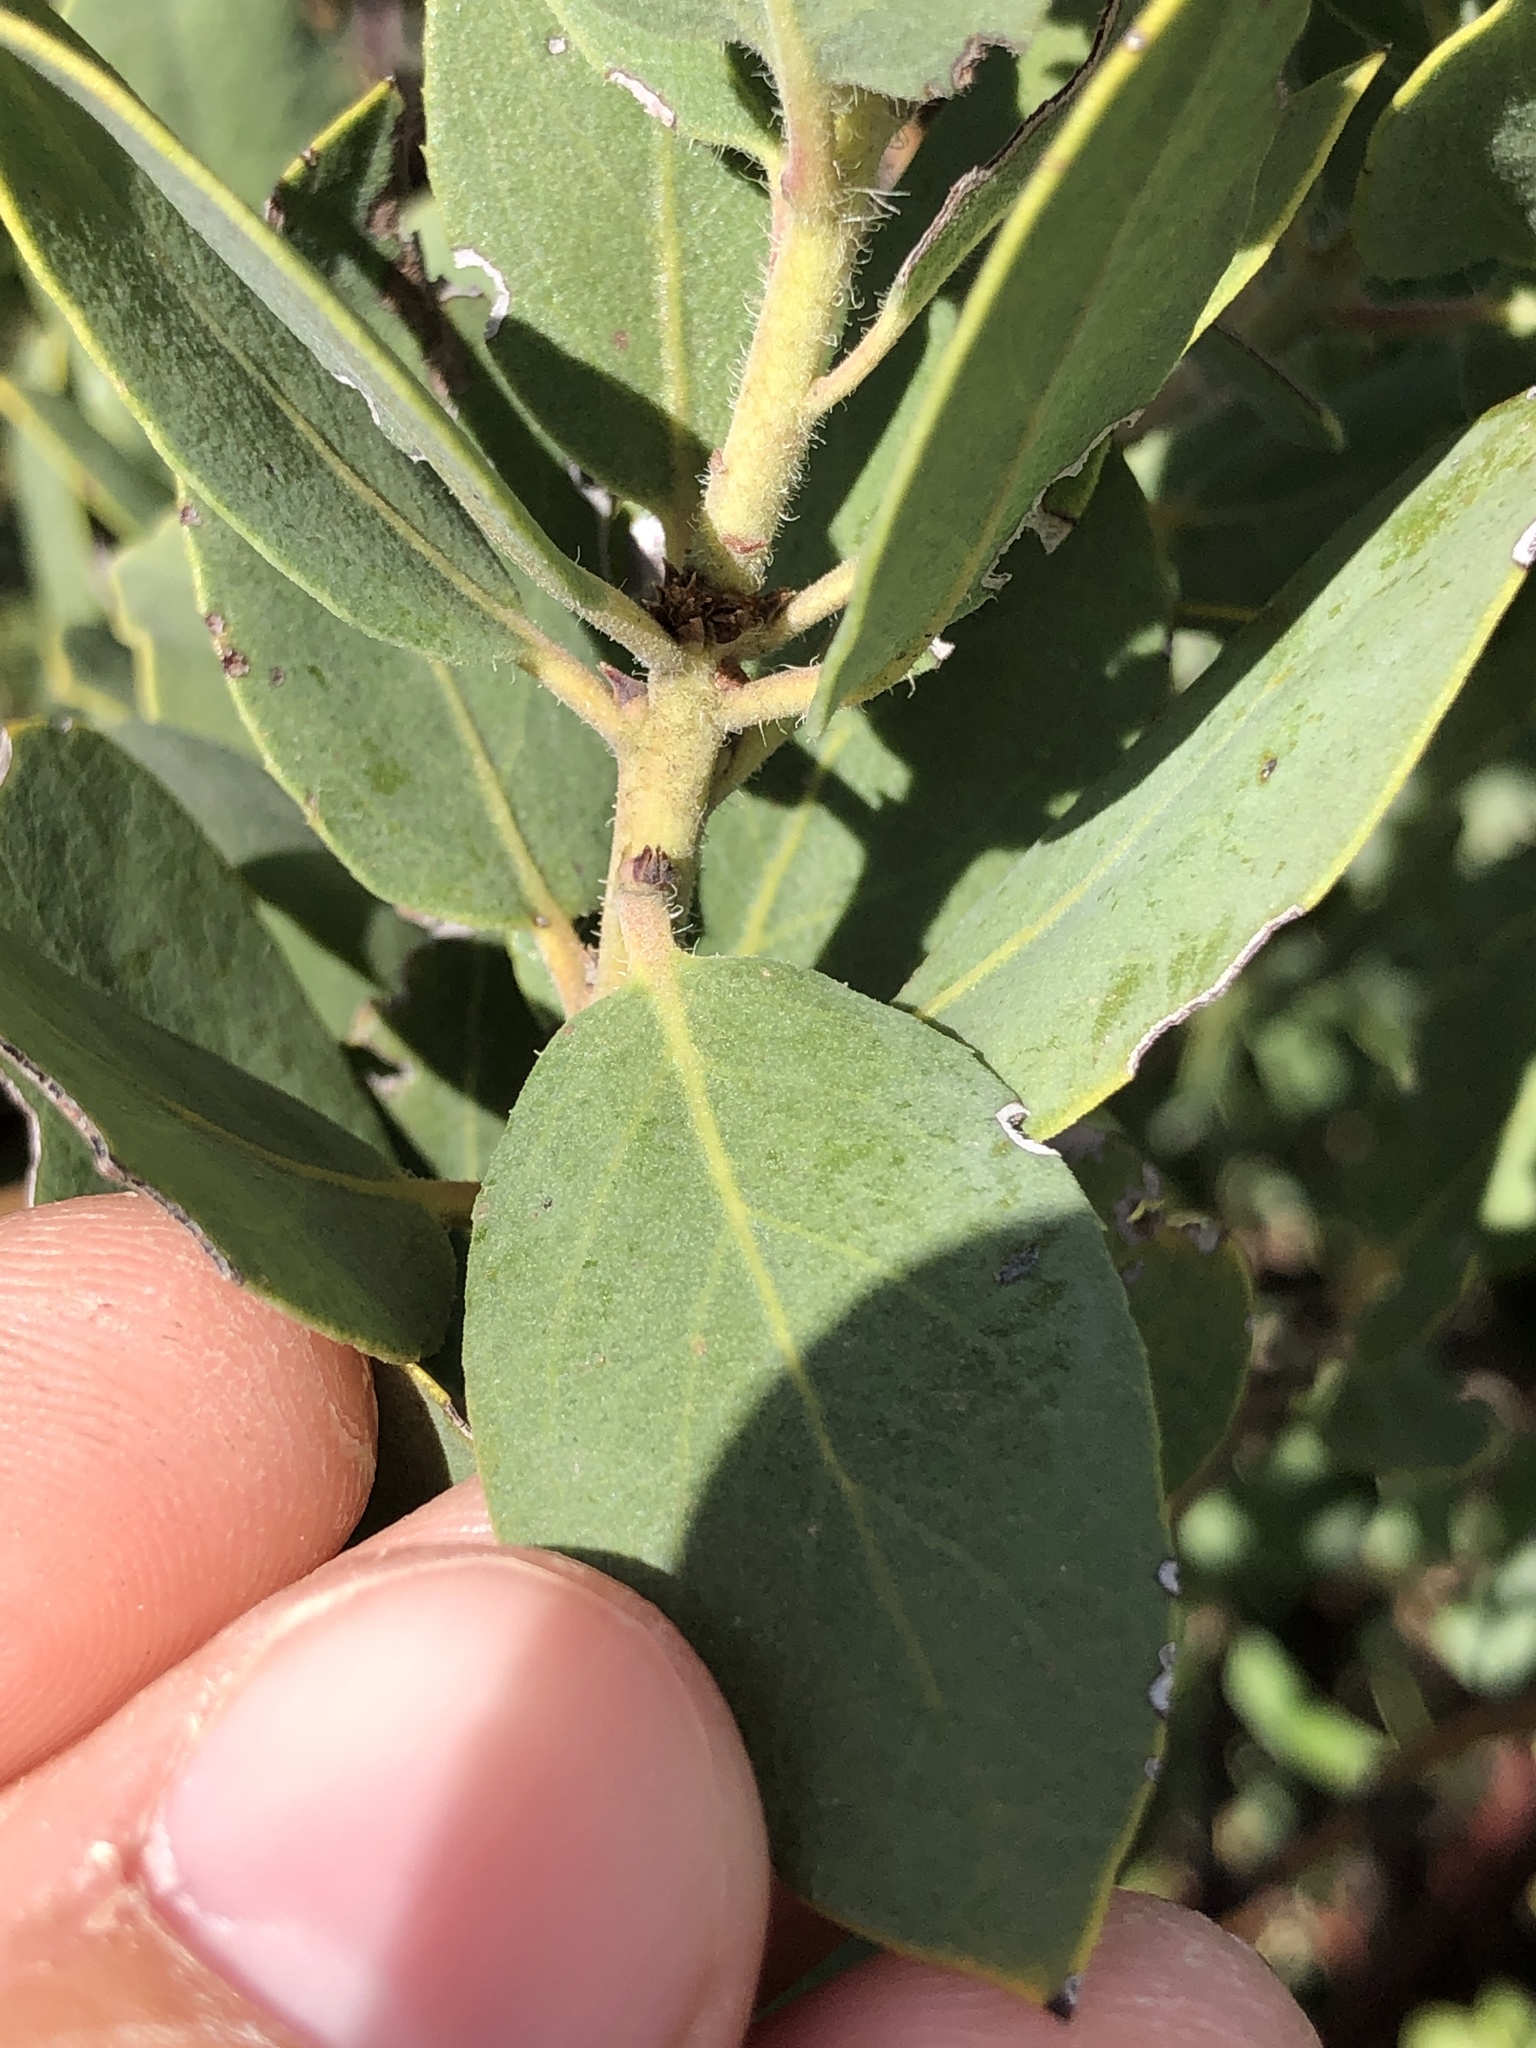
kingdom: Plantae
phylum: Tracheophyta
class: Magnoliopsida
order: Ericales
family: Ericaceae
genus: Arctostaphylos
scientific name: Arctostaphylos crustacea
